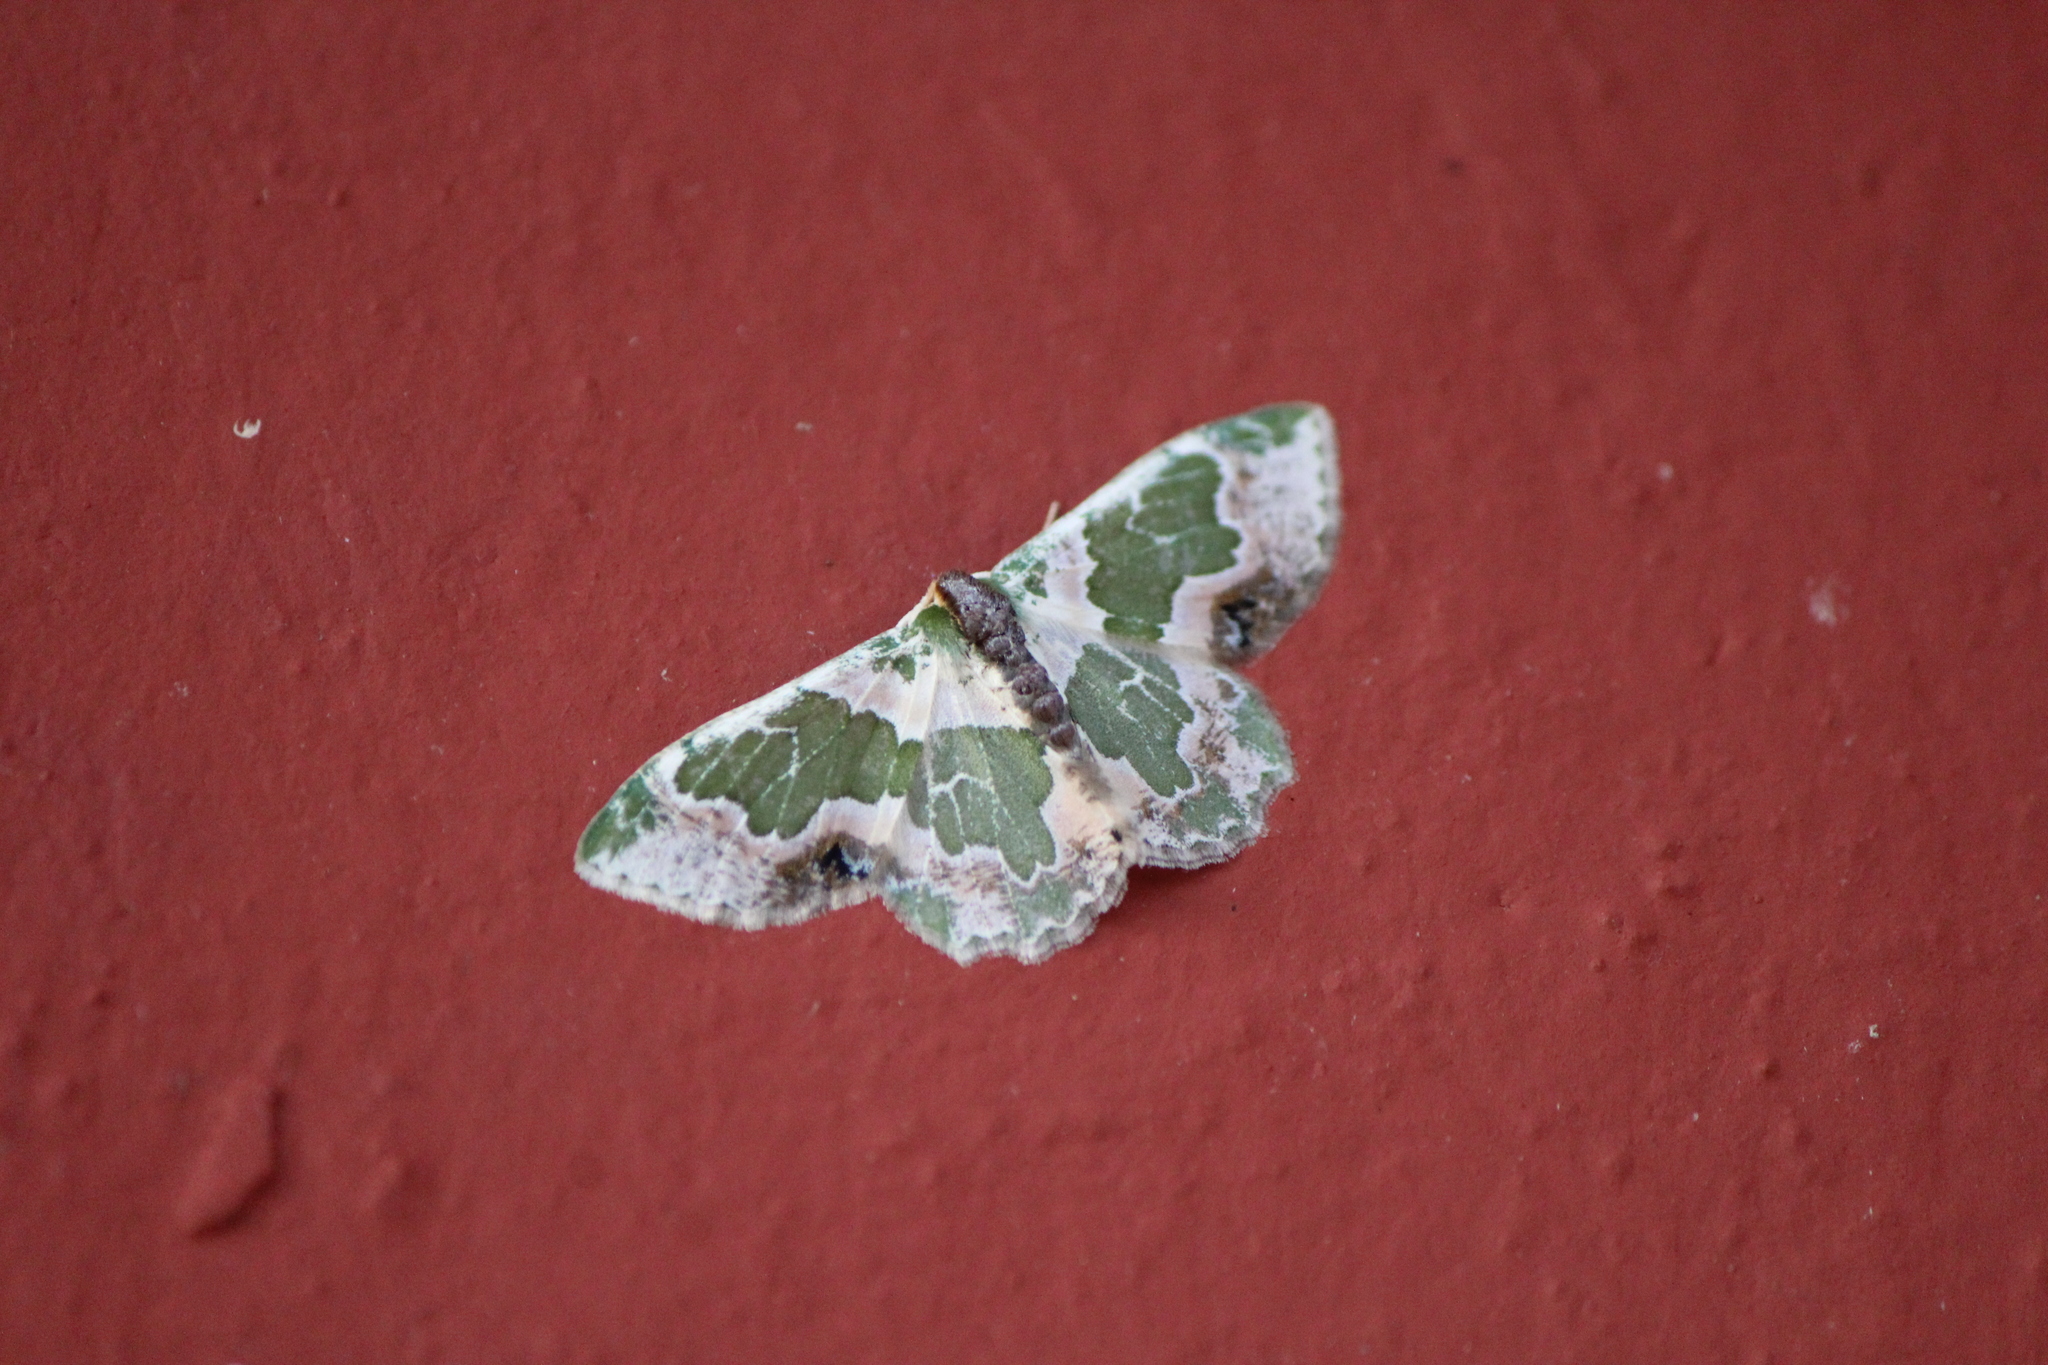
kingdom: Animalia
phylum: Arthropoda
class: Insecta
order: Lepidoptera
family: Geometridae
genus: Lophochorista
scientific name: Lophochorista calliope
